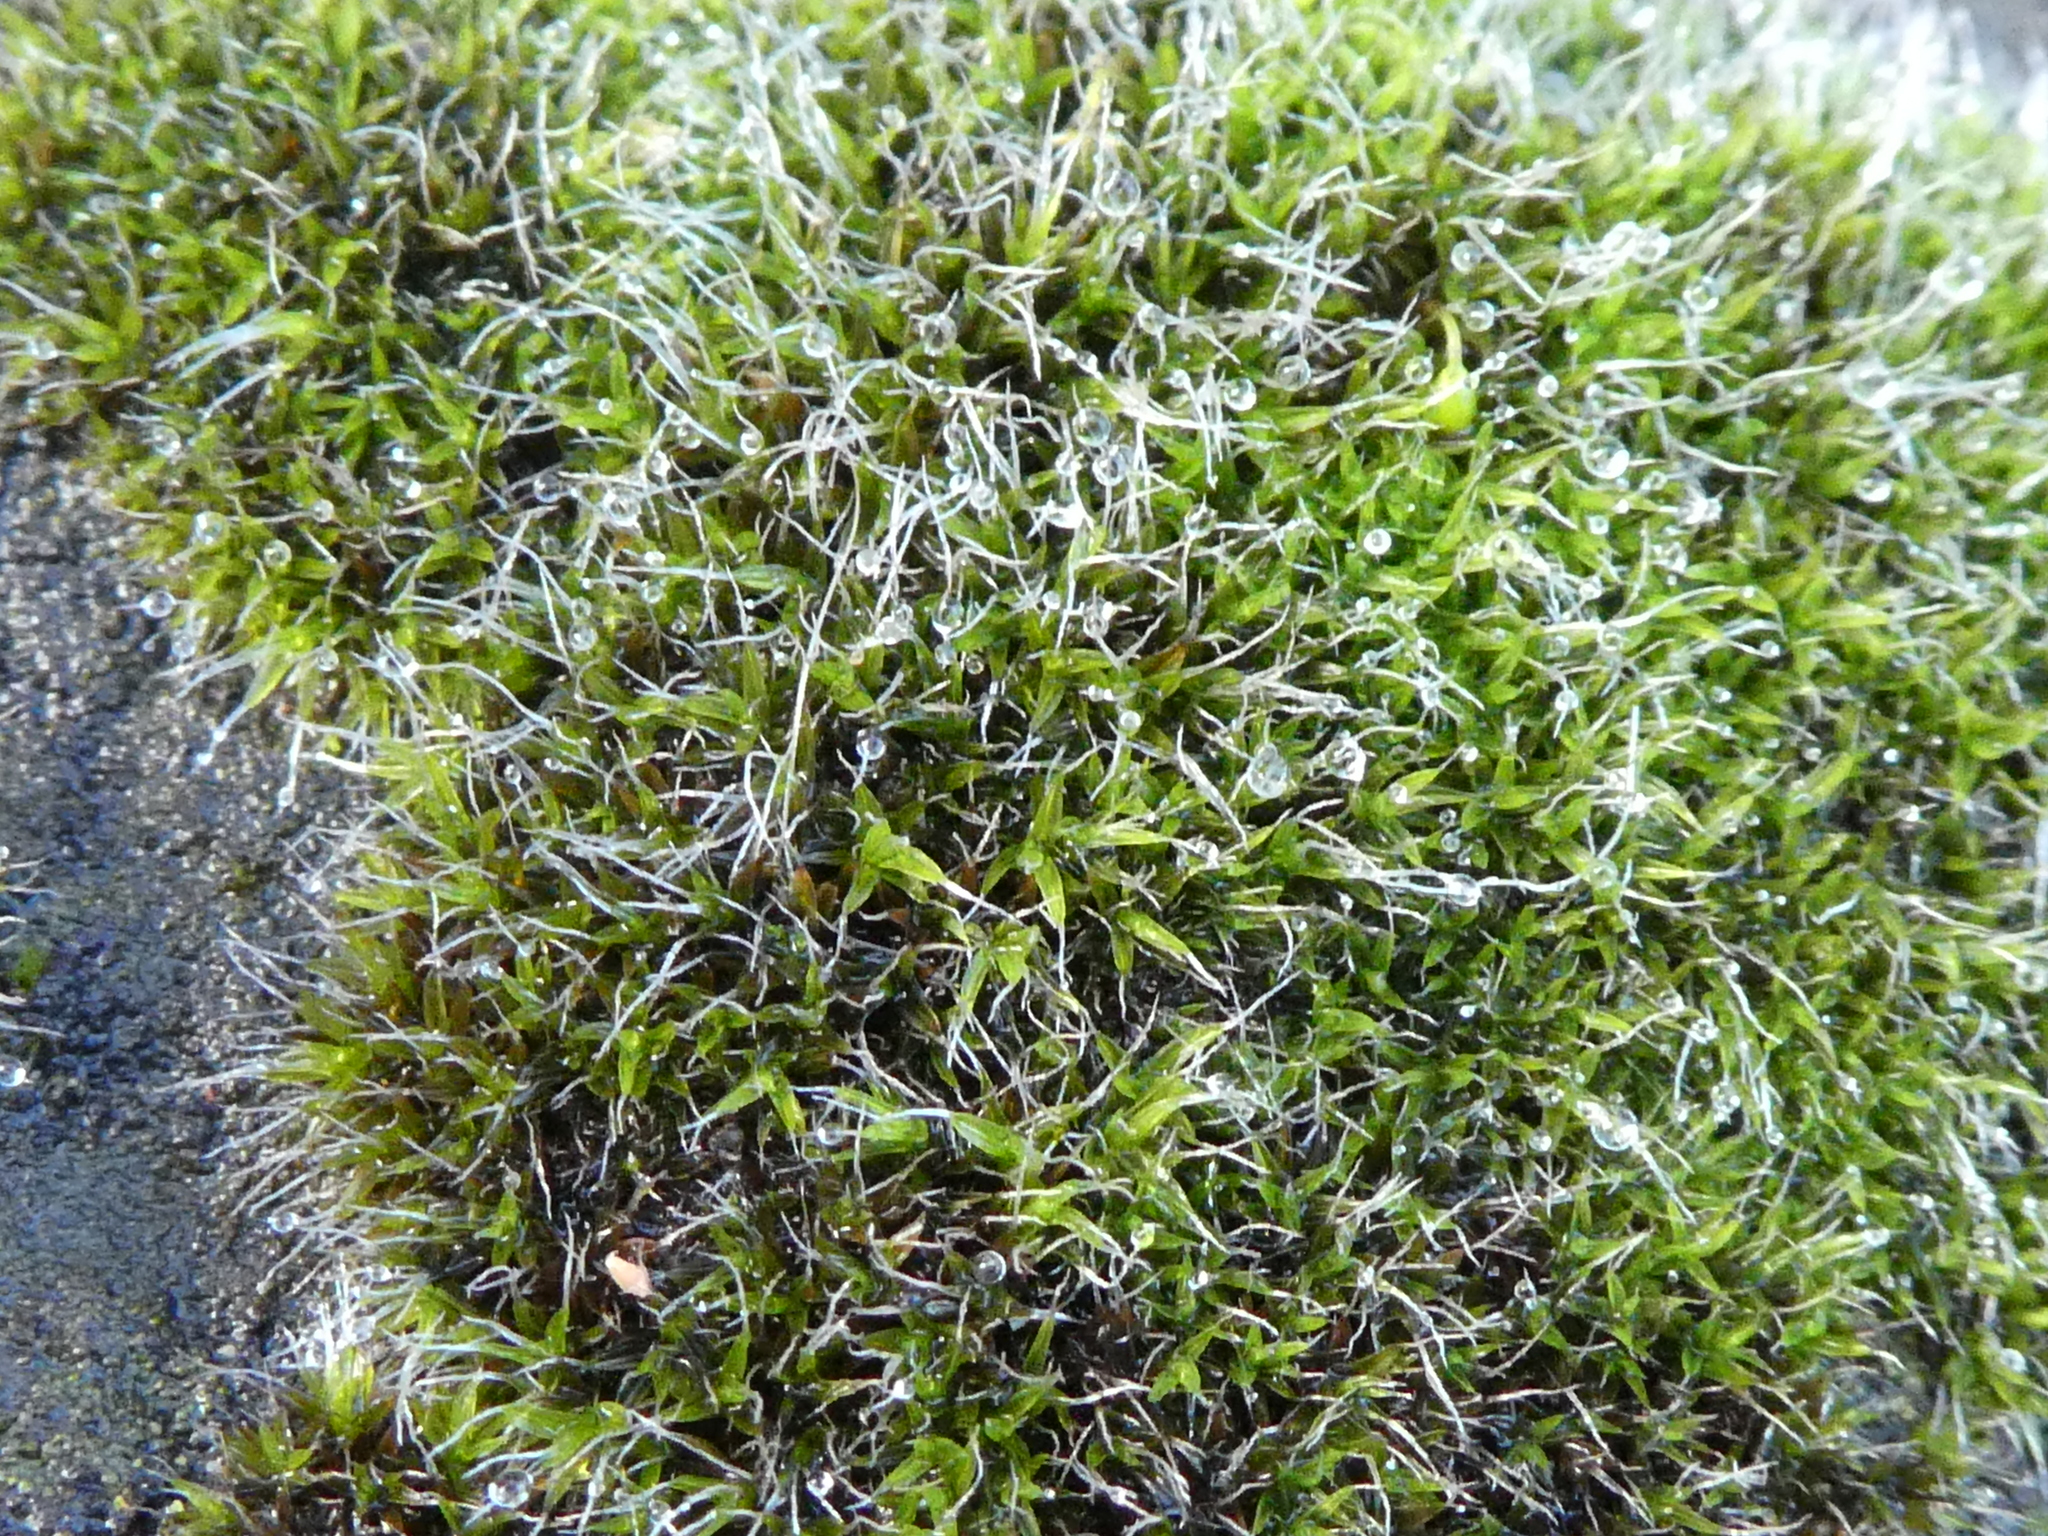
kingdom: Plantae
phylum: Bryophyta
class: Bryopsida
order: Grimmiales
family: Grimmiaceae
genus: Grimmia
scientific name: Grimmia pulvinata
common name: Grey-cushioned grimmia
